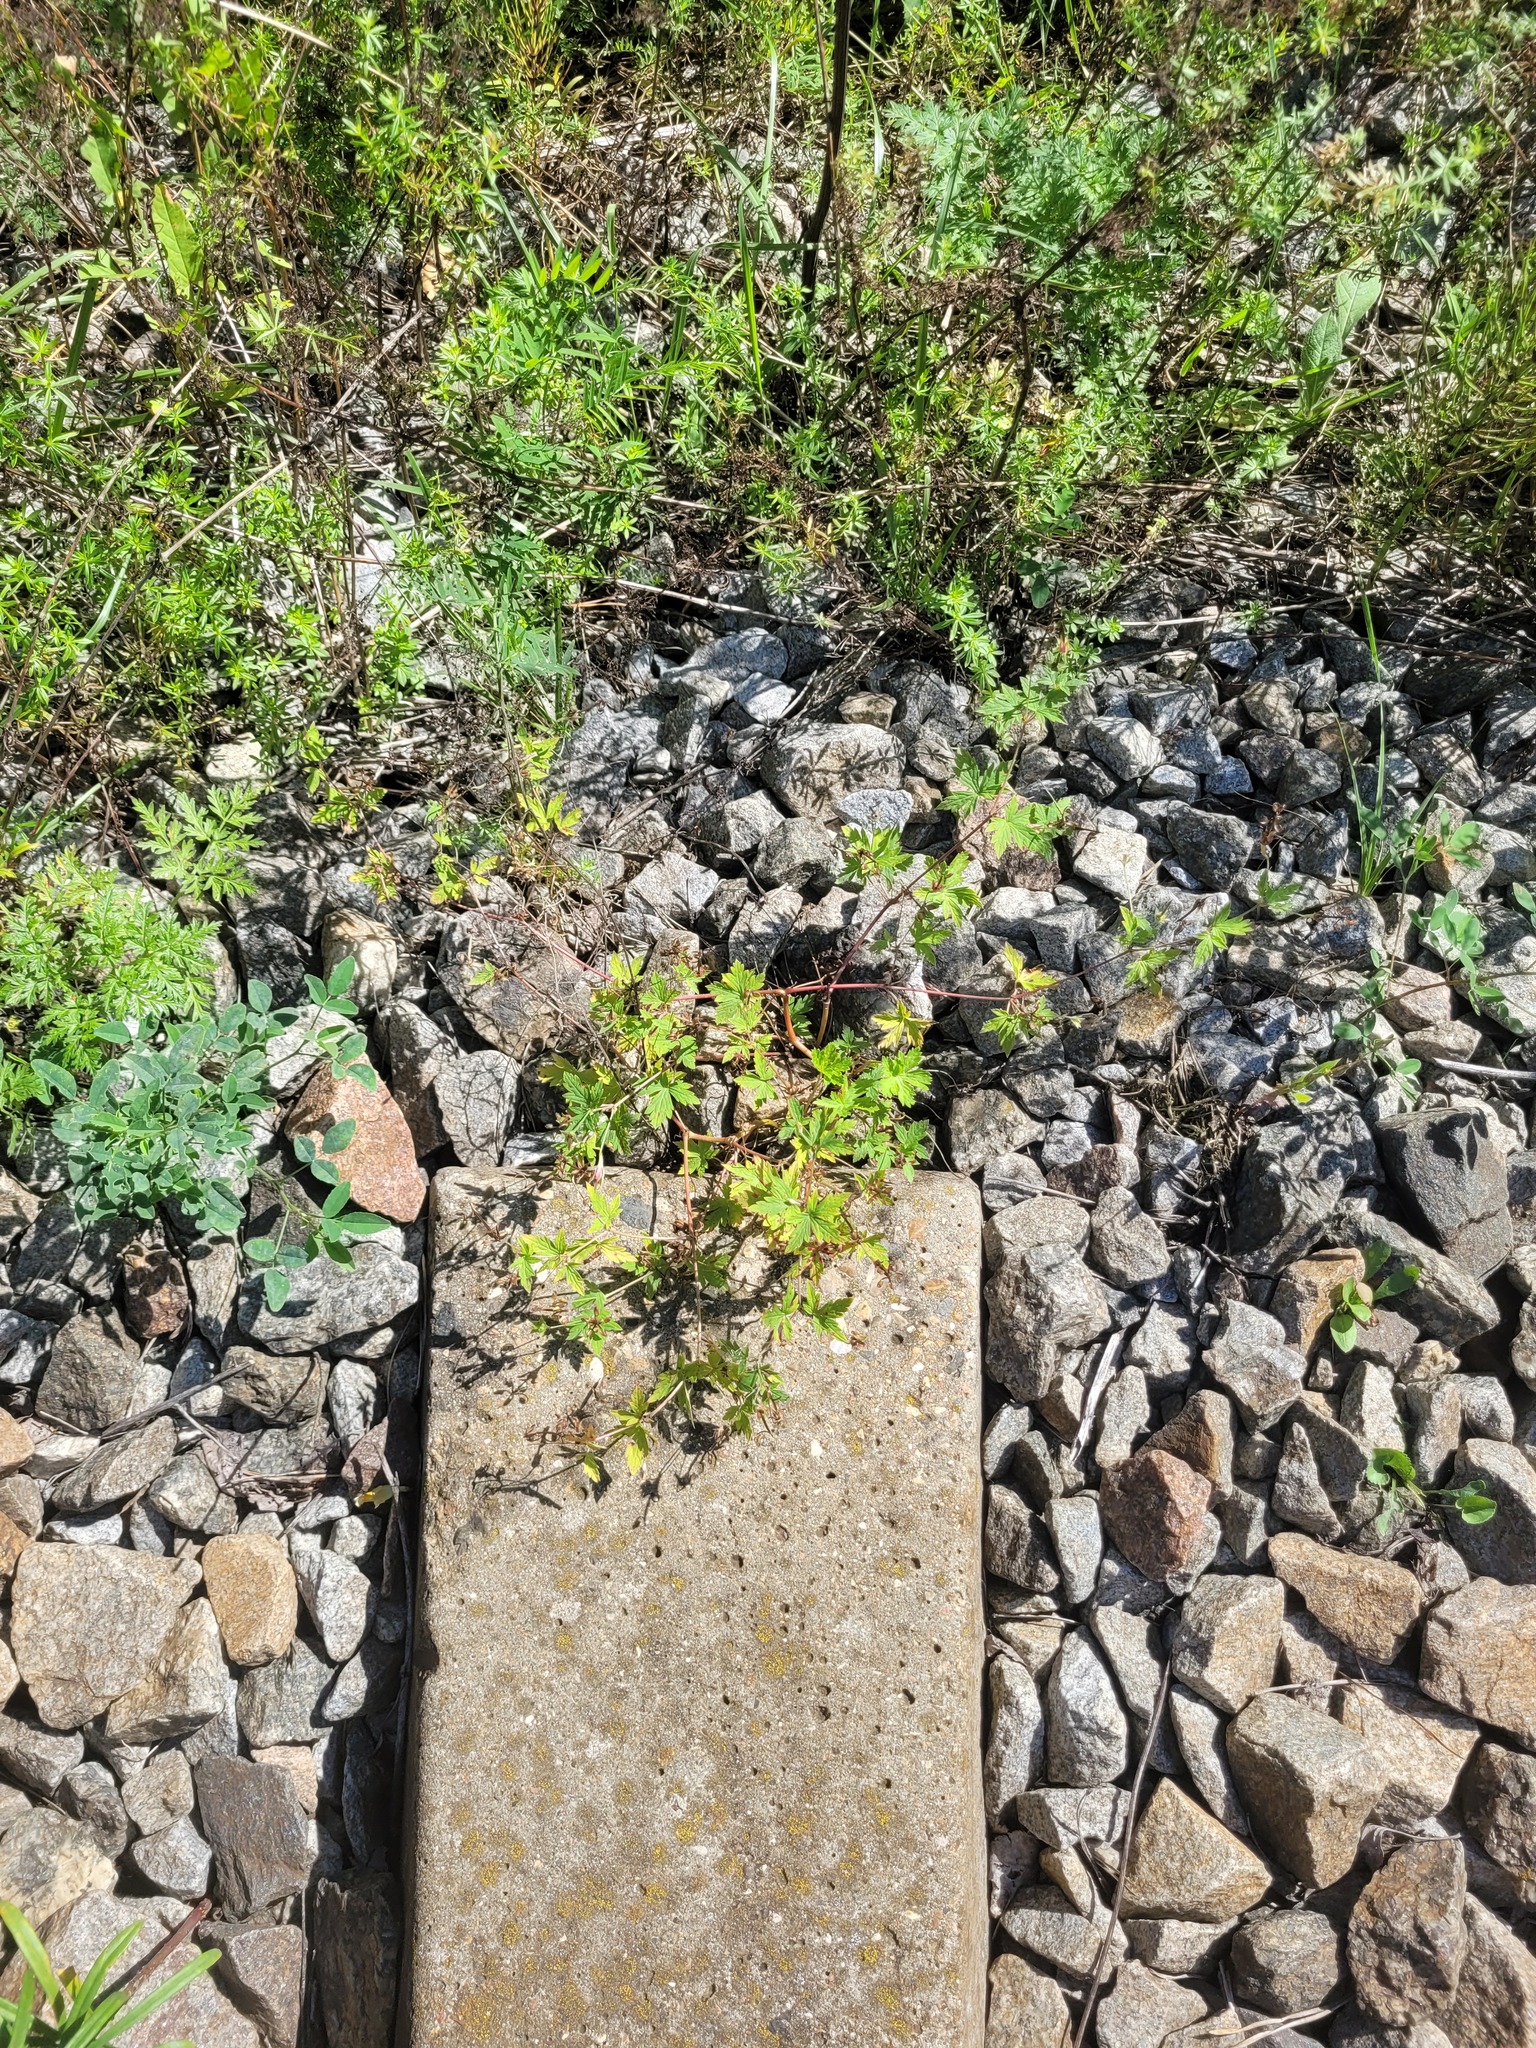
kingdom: Plantae
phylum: Tracheophyta
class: Magnoliopsida
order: Geraniales
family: Geraniaceae
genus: Geranium
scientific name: Geranium sibiricum
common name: Siberian crane's-bill
